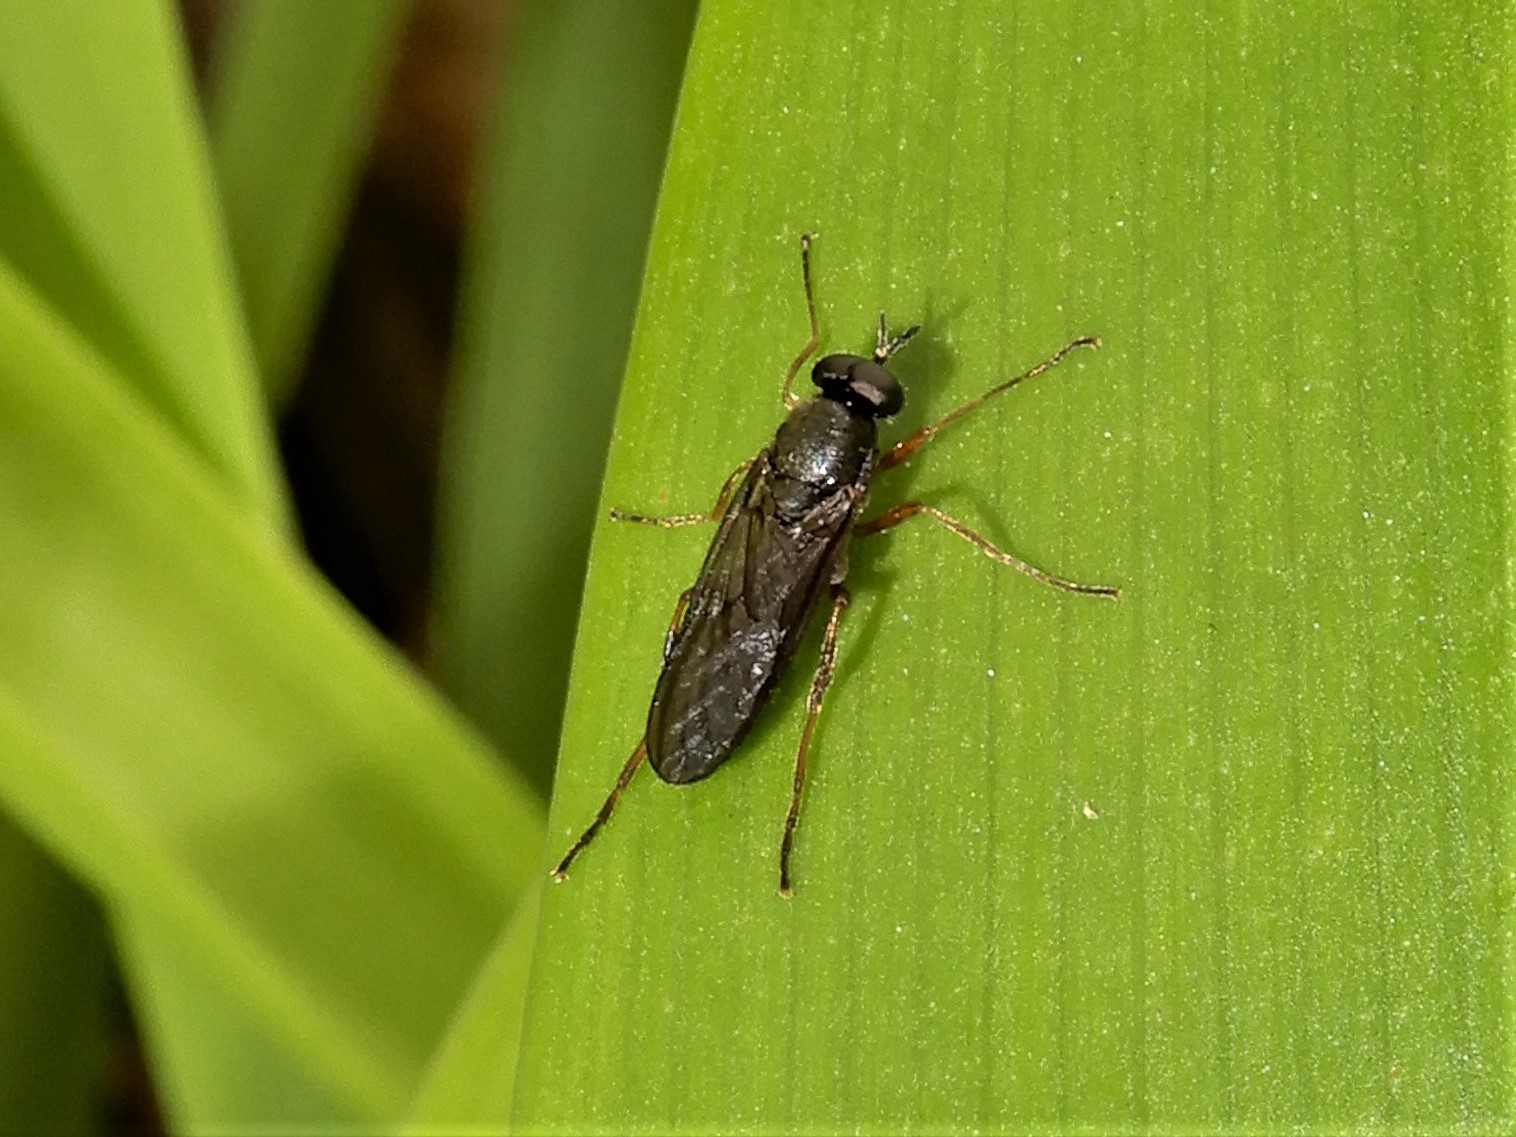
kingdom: Animalia
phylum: Arthropoda
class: Insecta
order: Diptera
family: Stratiomyidae
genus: Inopus
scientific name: Inopus rubriceps
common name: Soldier fly
